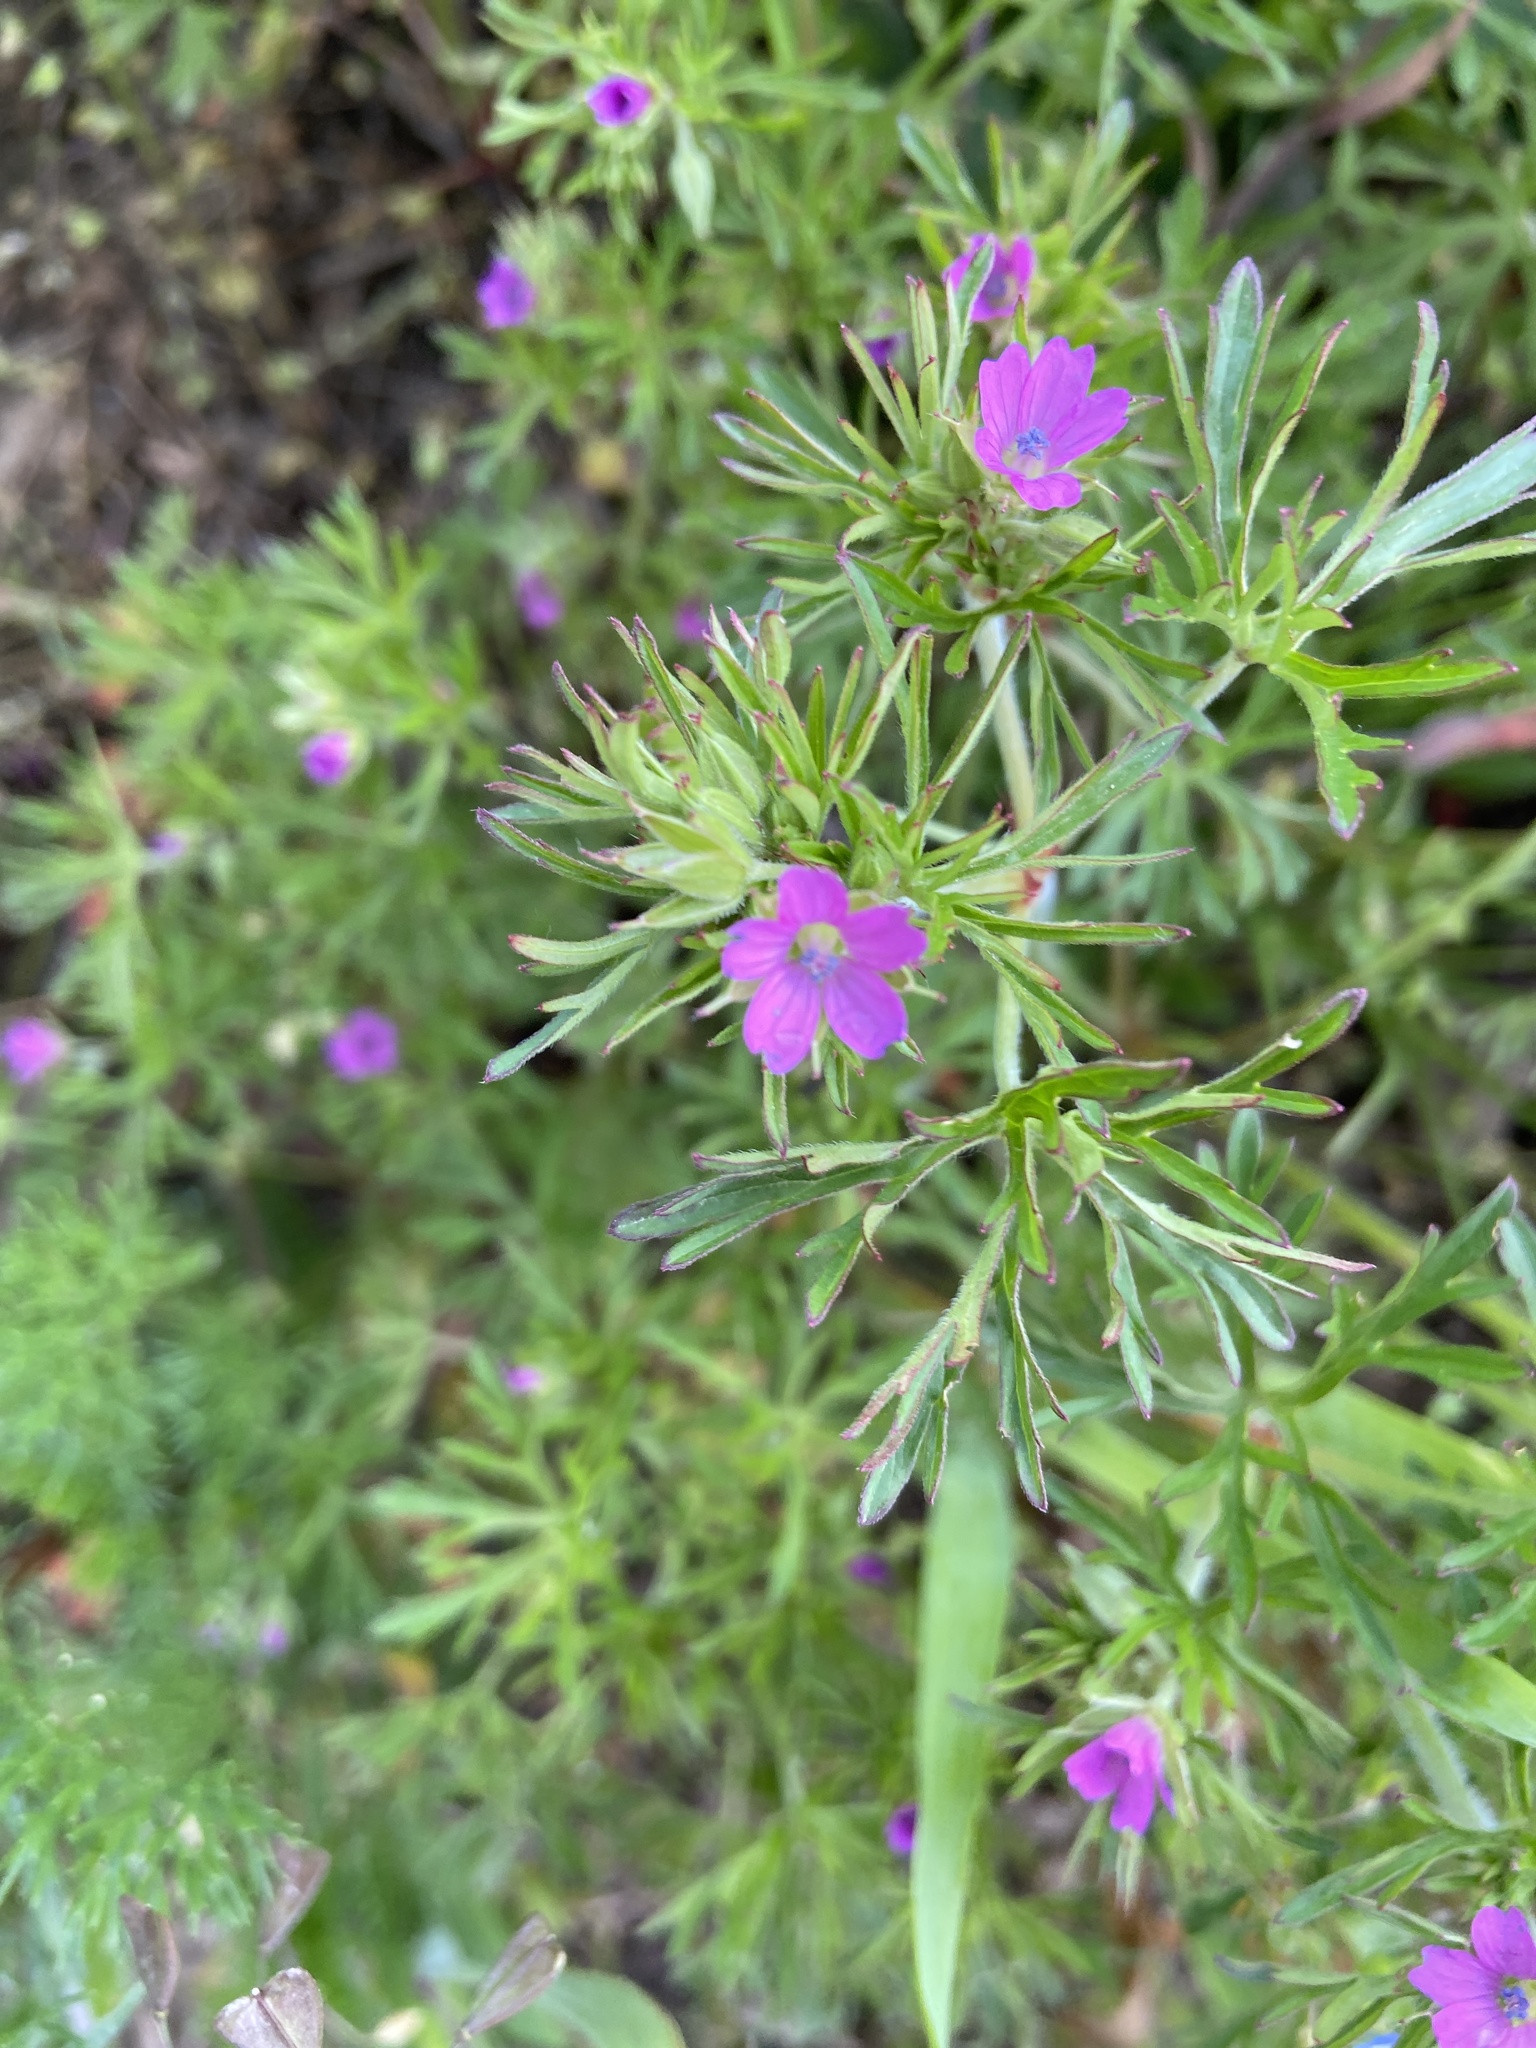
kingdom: Plantae
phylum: Tracheophyta
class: Magnoliopsida
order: Geraniales
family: Geraniaceae
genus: Geranium
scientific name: Geranium dissectum
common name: Cut-leaved crane's-bill
